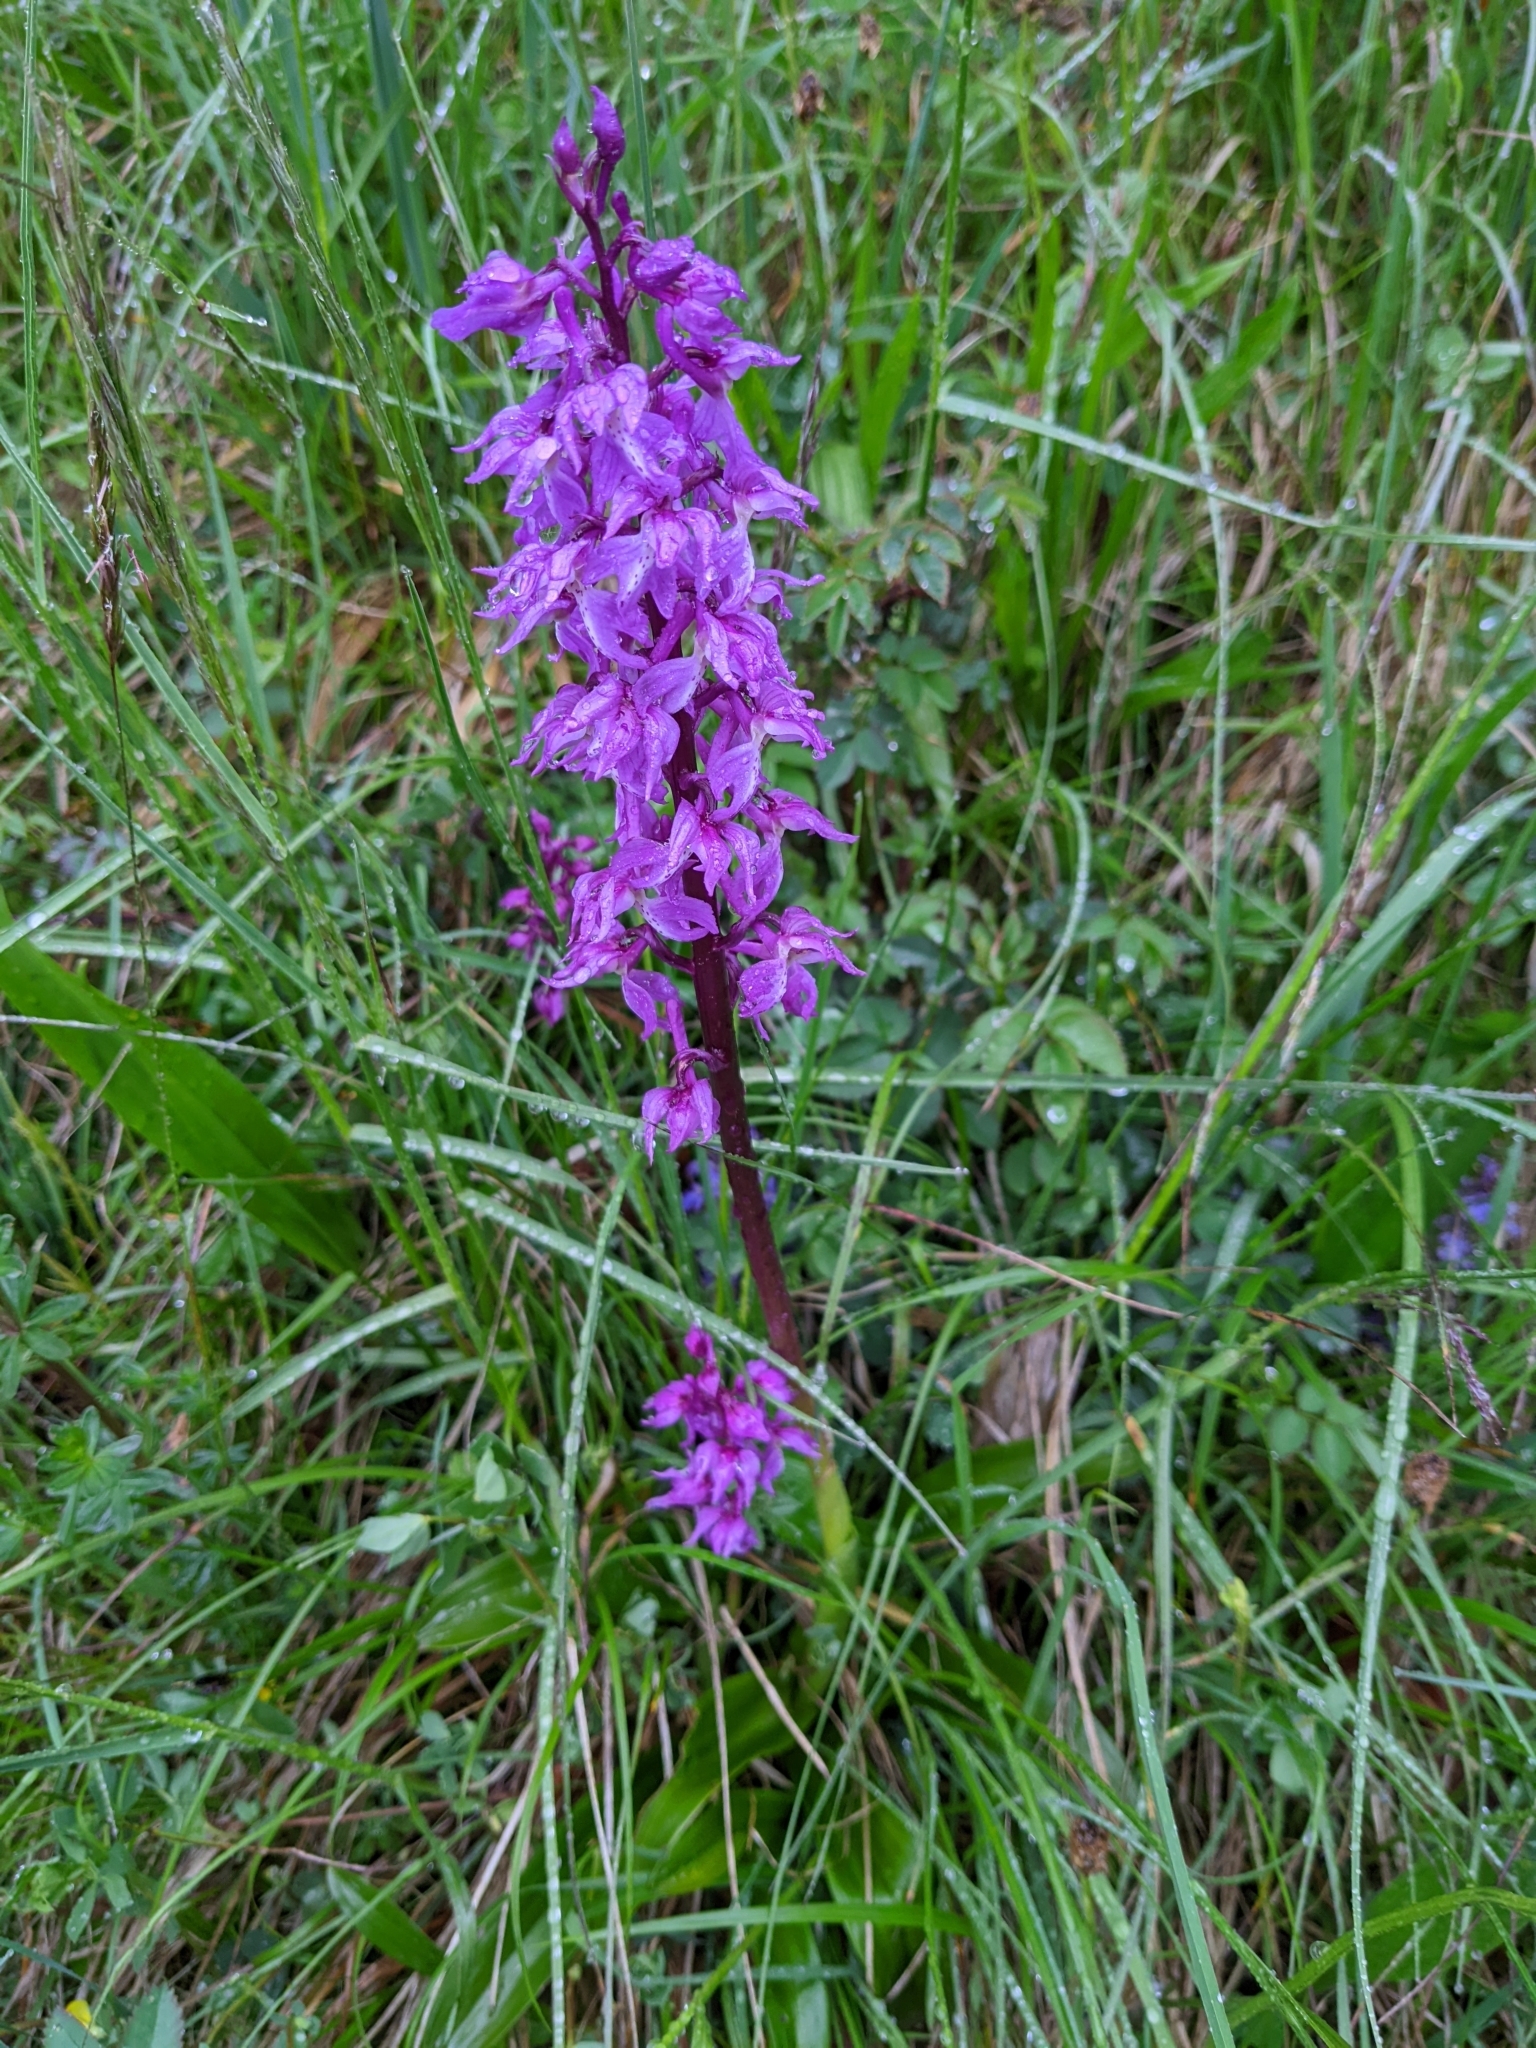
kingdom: Plantae
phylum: Tracheophyta
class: Liliopsida
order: Asparagales
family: Orchidaceae
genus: Orchis
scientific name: Orchis mascula
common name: Early-purple orchid
